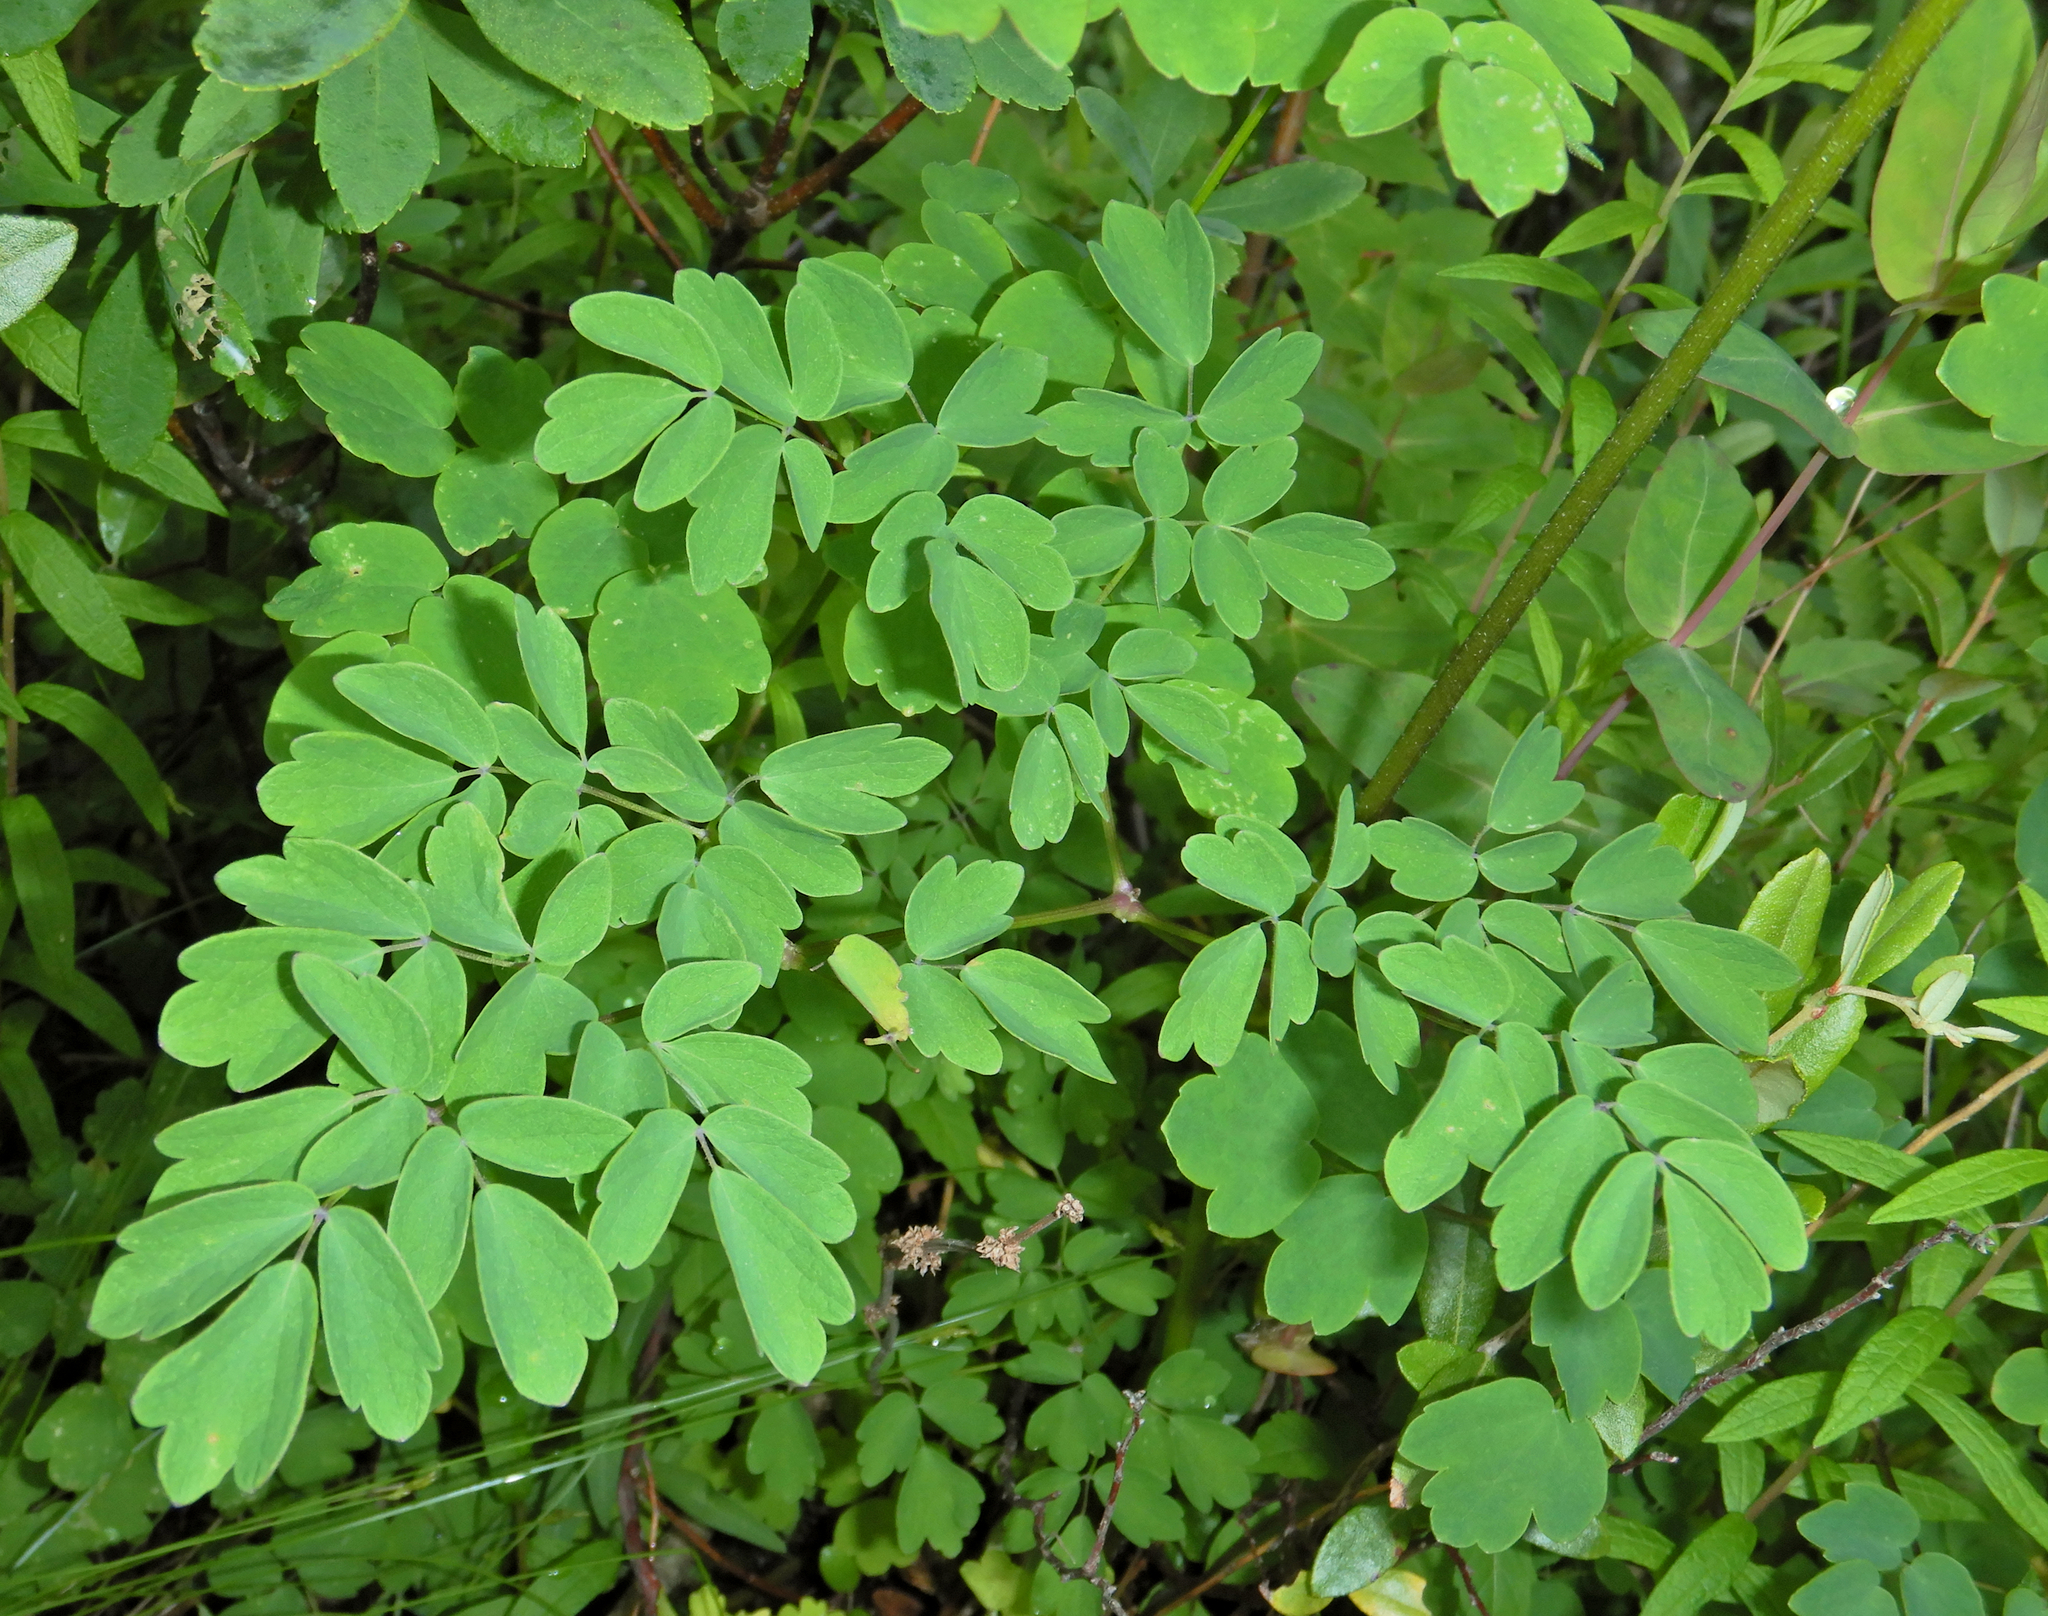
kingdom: Plantae
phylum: Tracheophyta
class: Magnoliopsida
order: Ranunculales
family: Ranunculaceae
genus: Thalictrum
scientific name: Thalictrum pubescens
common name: King-of-the-meadow
